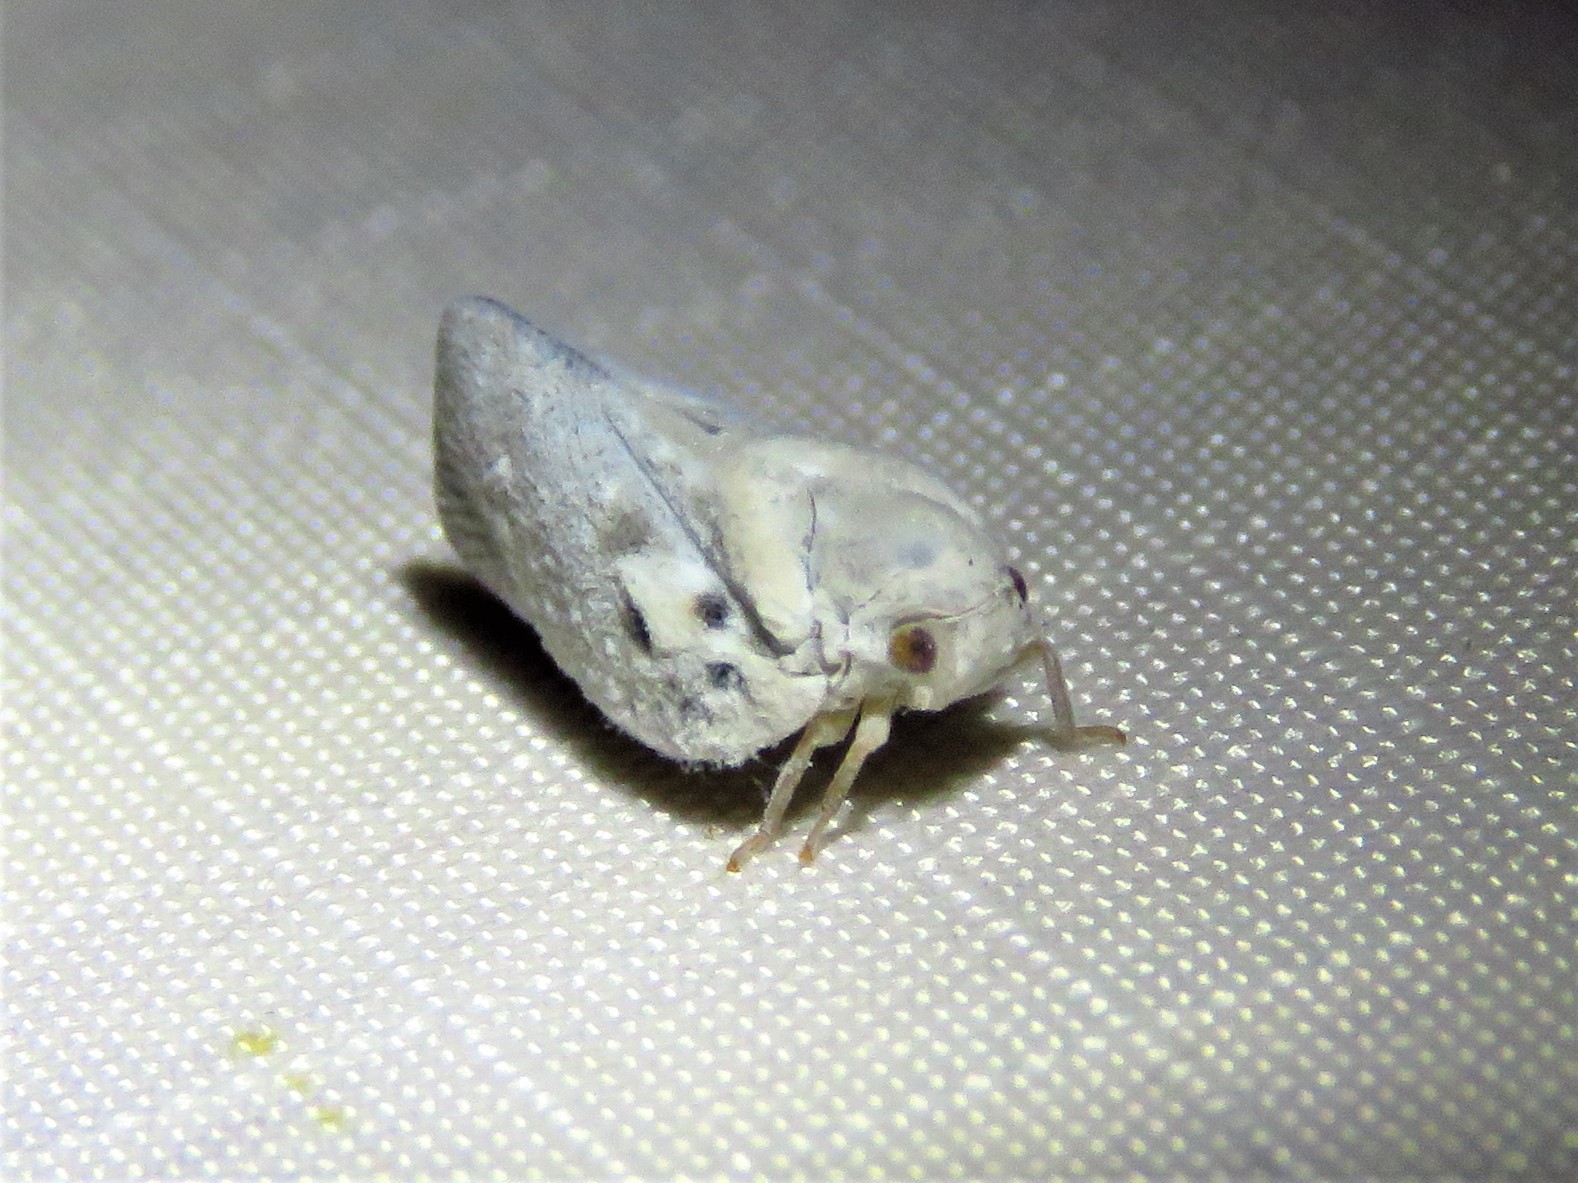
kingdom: Animalia
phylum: Arthropoda
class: Insecta
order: Hemiptera
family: Flatidae
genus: Metcalfa
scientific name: Metcalfa pruinosa
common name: Citrus flatid planthopper
